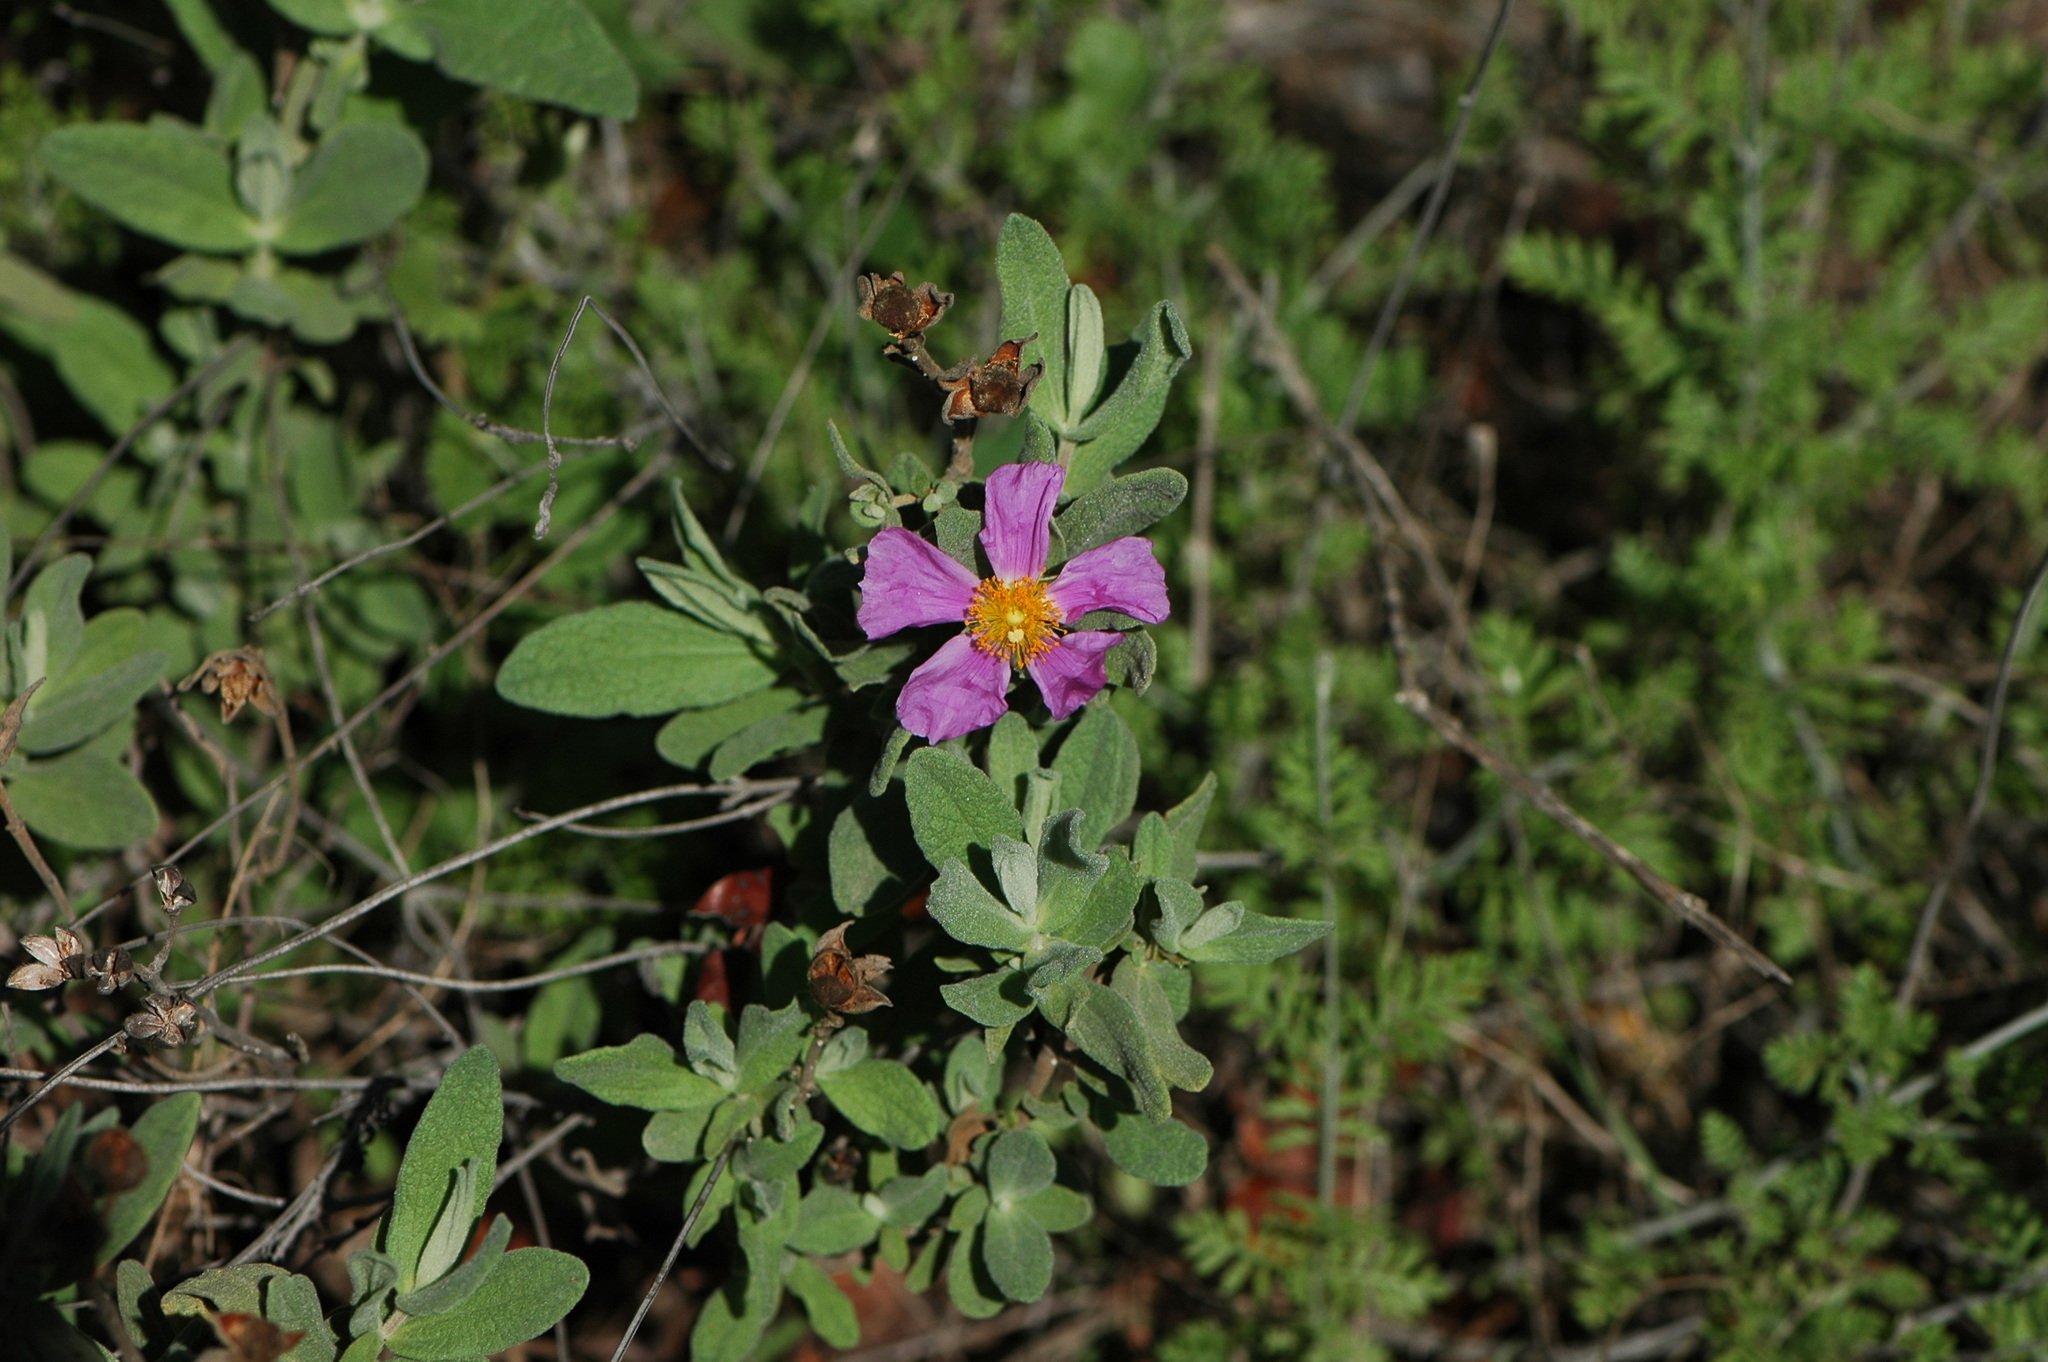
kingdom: Plantae
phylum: Tracheophyta
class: Magnoliopsida
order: Malvales
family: Cistaceae
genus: Cistus
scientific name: Cistus albidus
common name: White-leaf rock-rose
